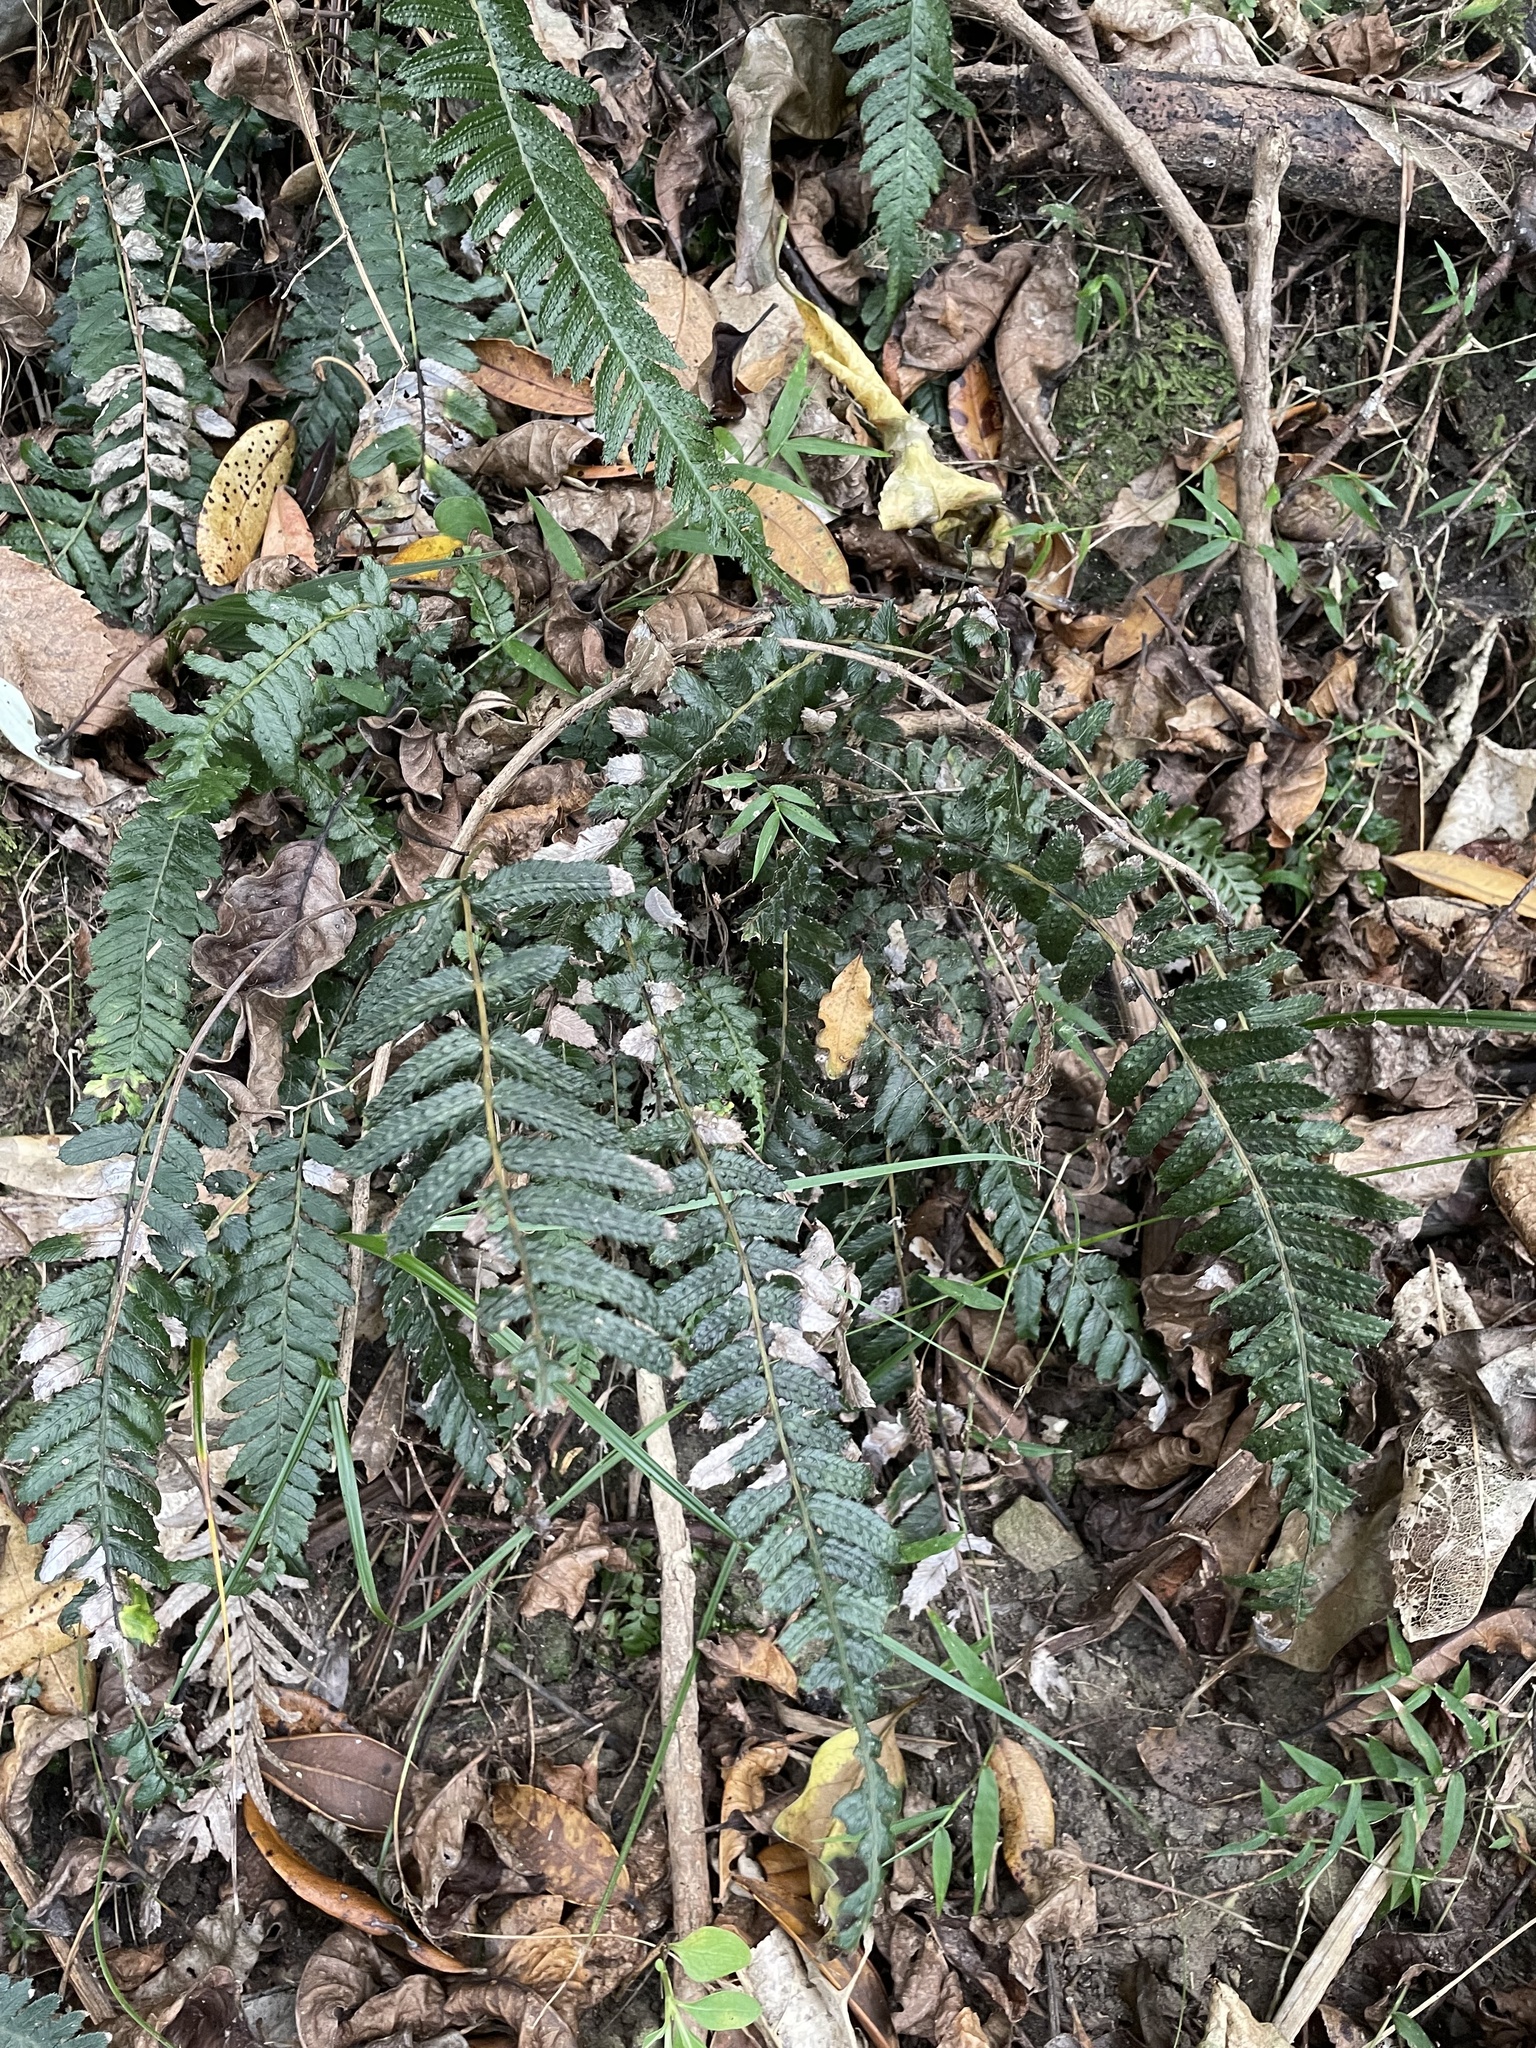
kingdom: Plantae
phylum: Tracheophyta
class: Polypodiopsida
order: Polypodiales
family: Blechnaceae
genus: Doodia
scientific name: Doodia australis
